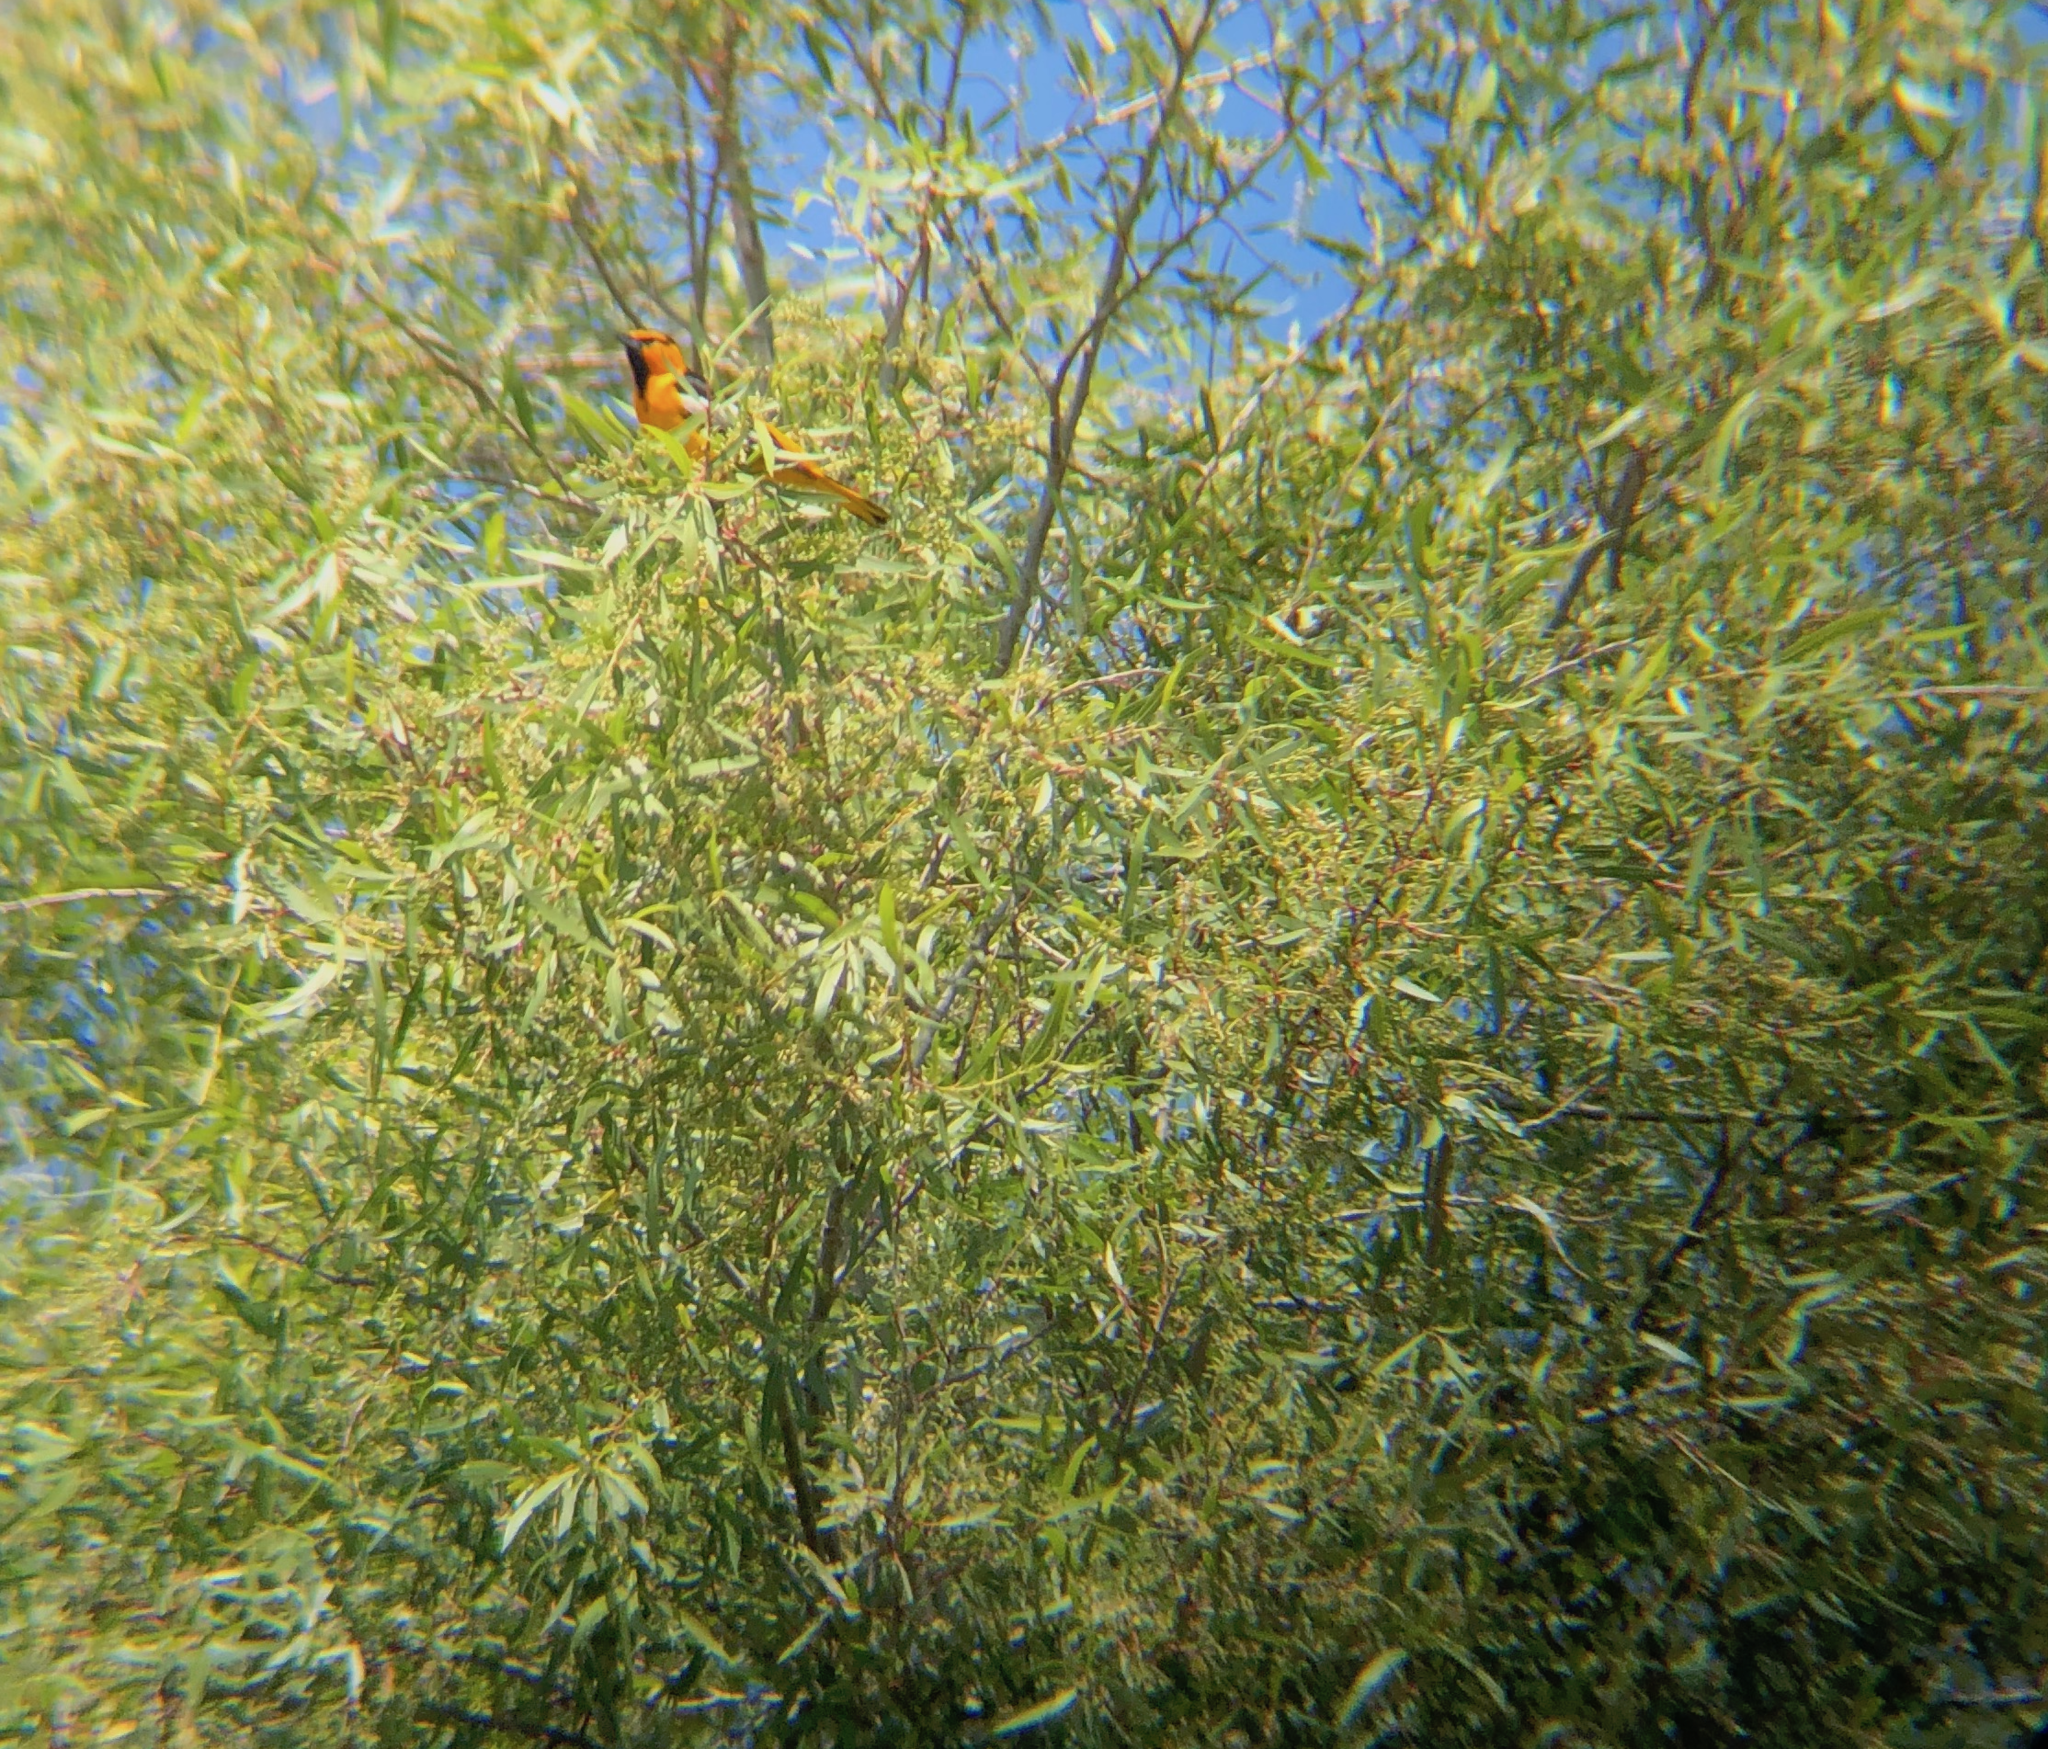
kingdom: Animalia
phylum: Chordata
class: Aves
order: Passeriformes
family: Icteridae
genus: Icterus
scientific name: Icterus bullockii
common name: Bullock's oriole
